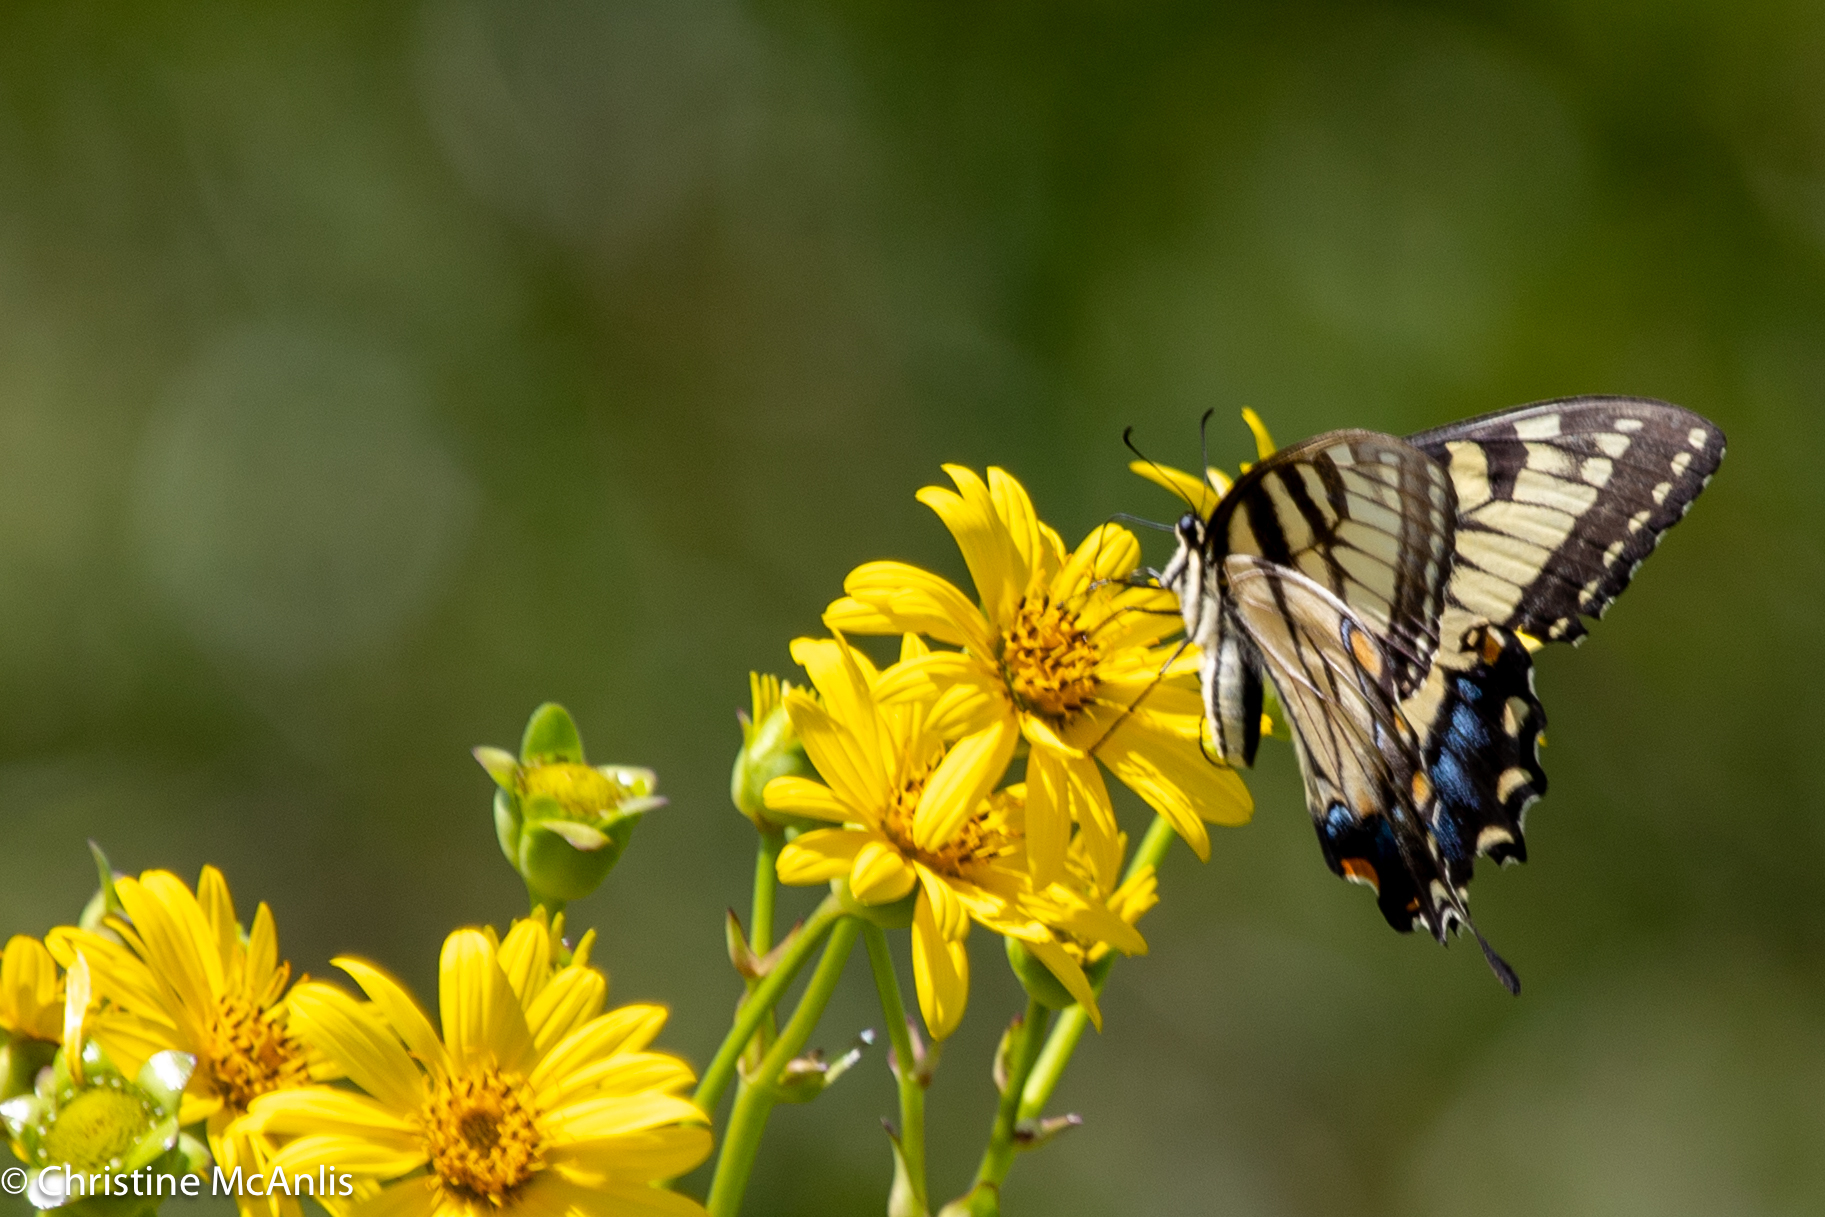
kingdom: Animalia
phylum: Arthropoda
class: Insecta
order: Lepidoptera
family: Papilionidae
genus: Papilio
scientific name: Papilio glaucus
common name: Tiger swallowtail
